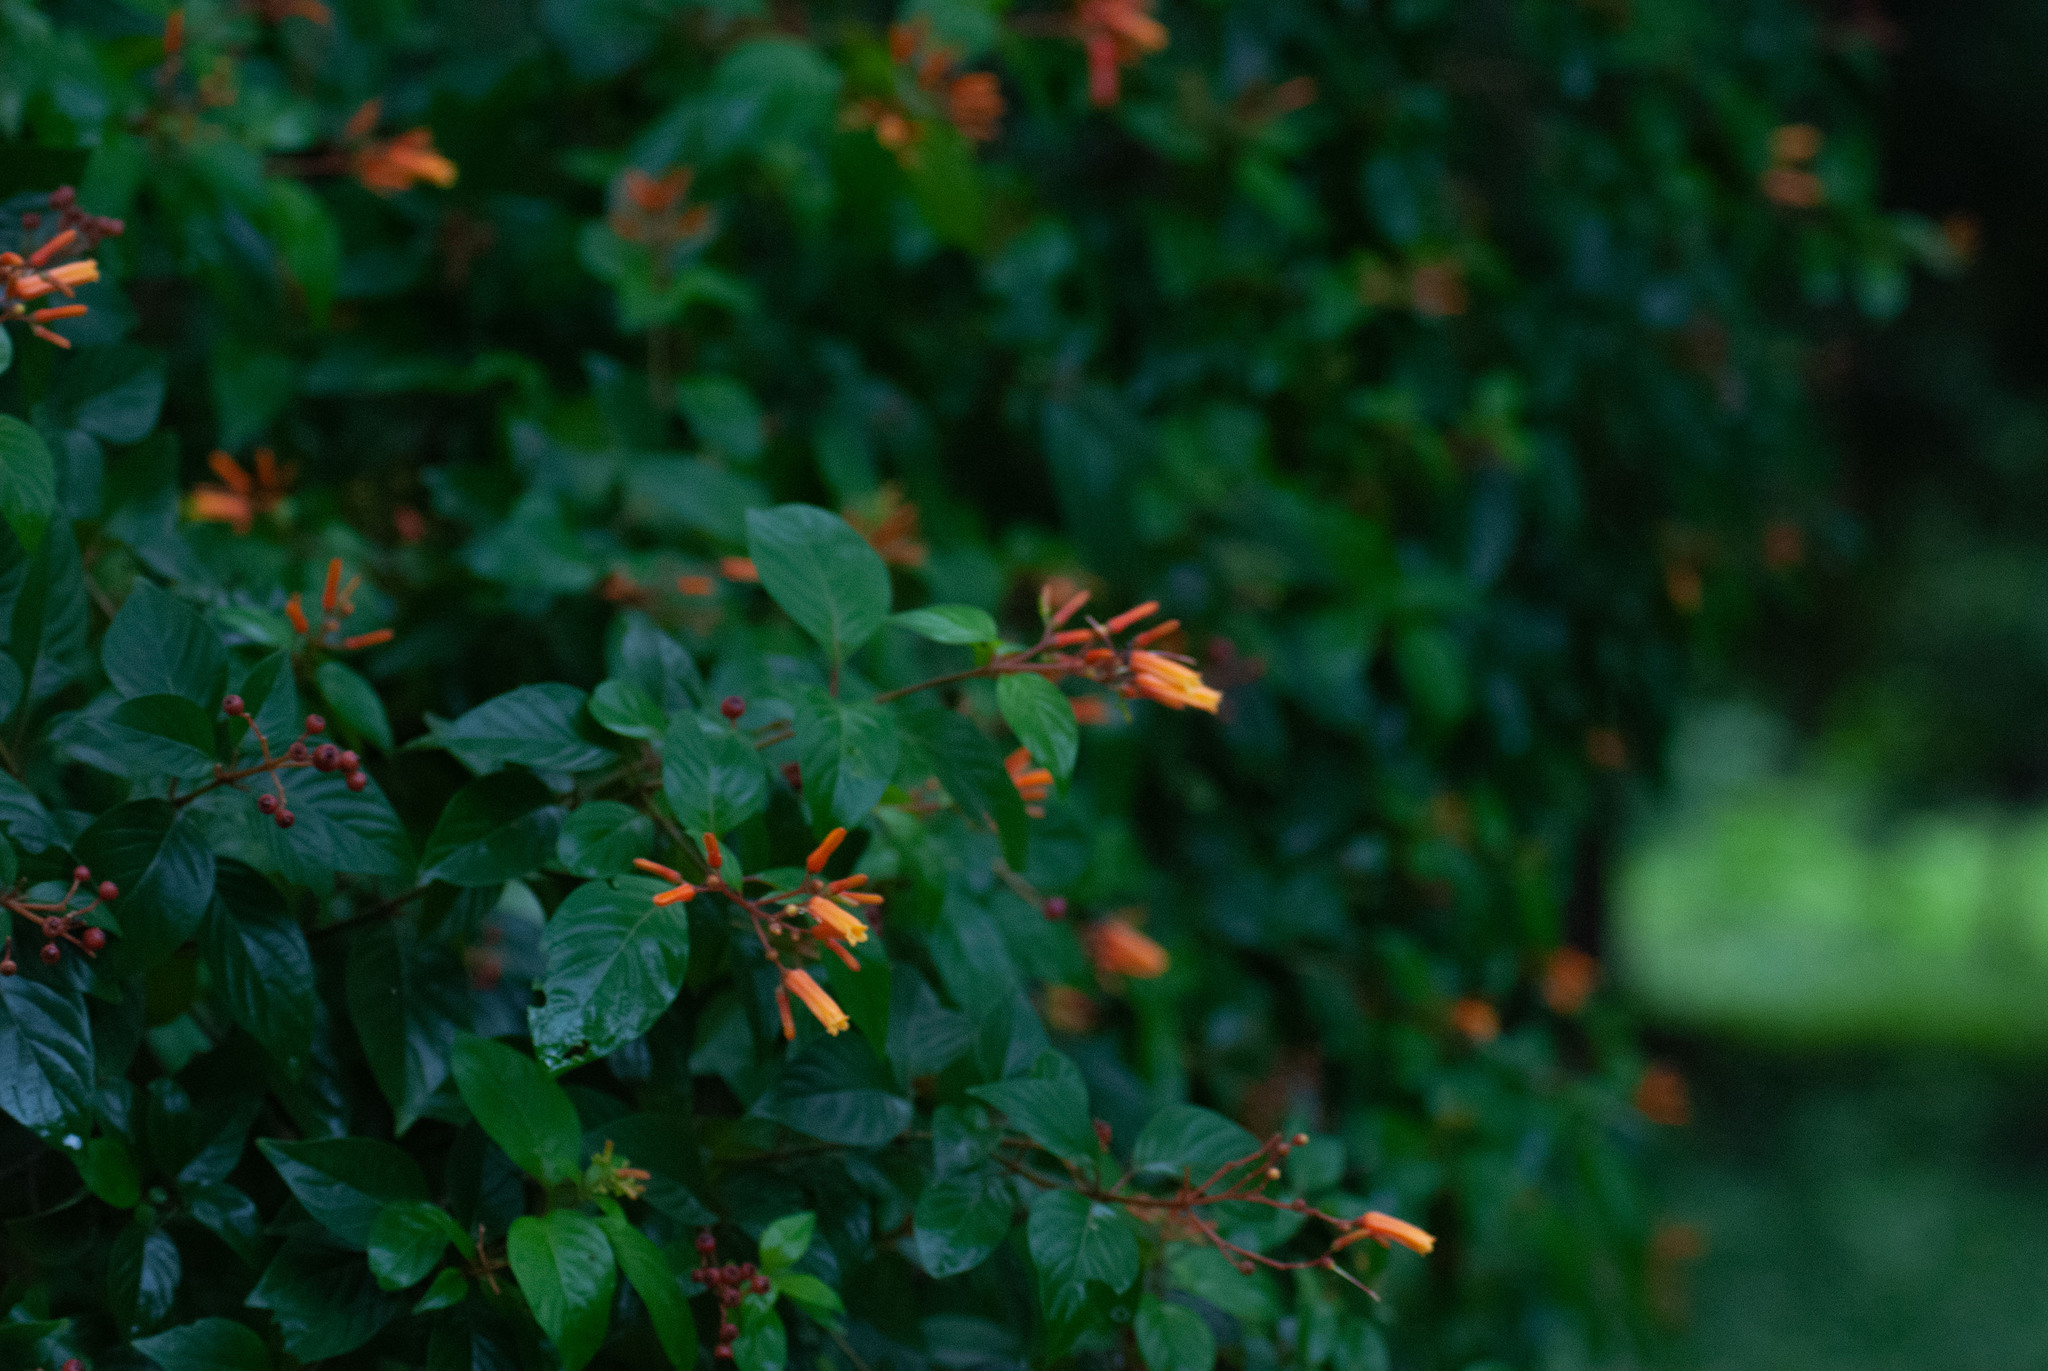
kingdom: Plantae
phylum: Tracheophyta
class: Magnoliopsida
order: Gentianales
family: Rubiaceae
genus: Hamelia
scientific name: Hamelia patens
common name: Redhead
